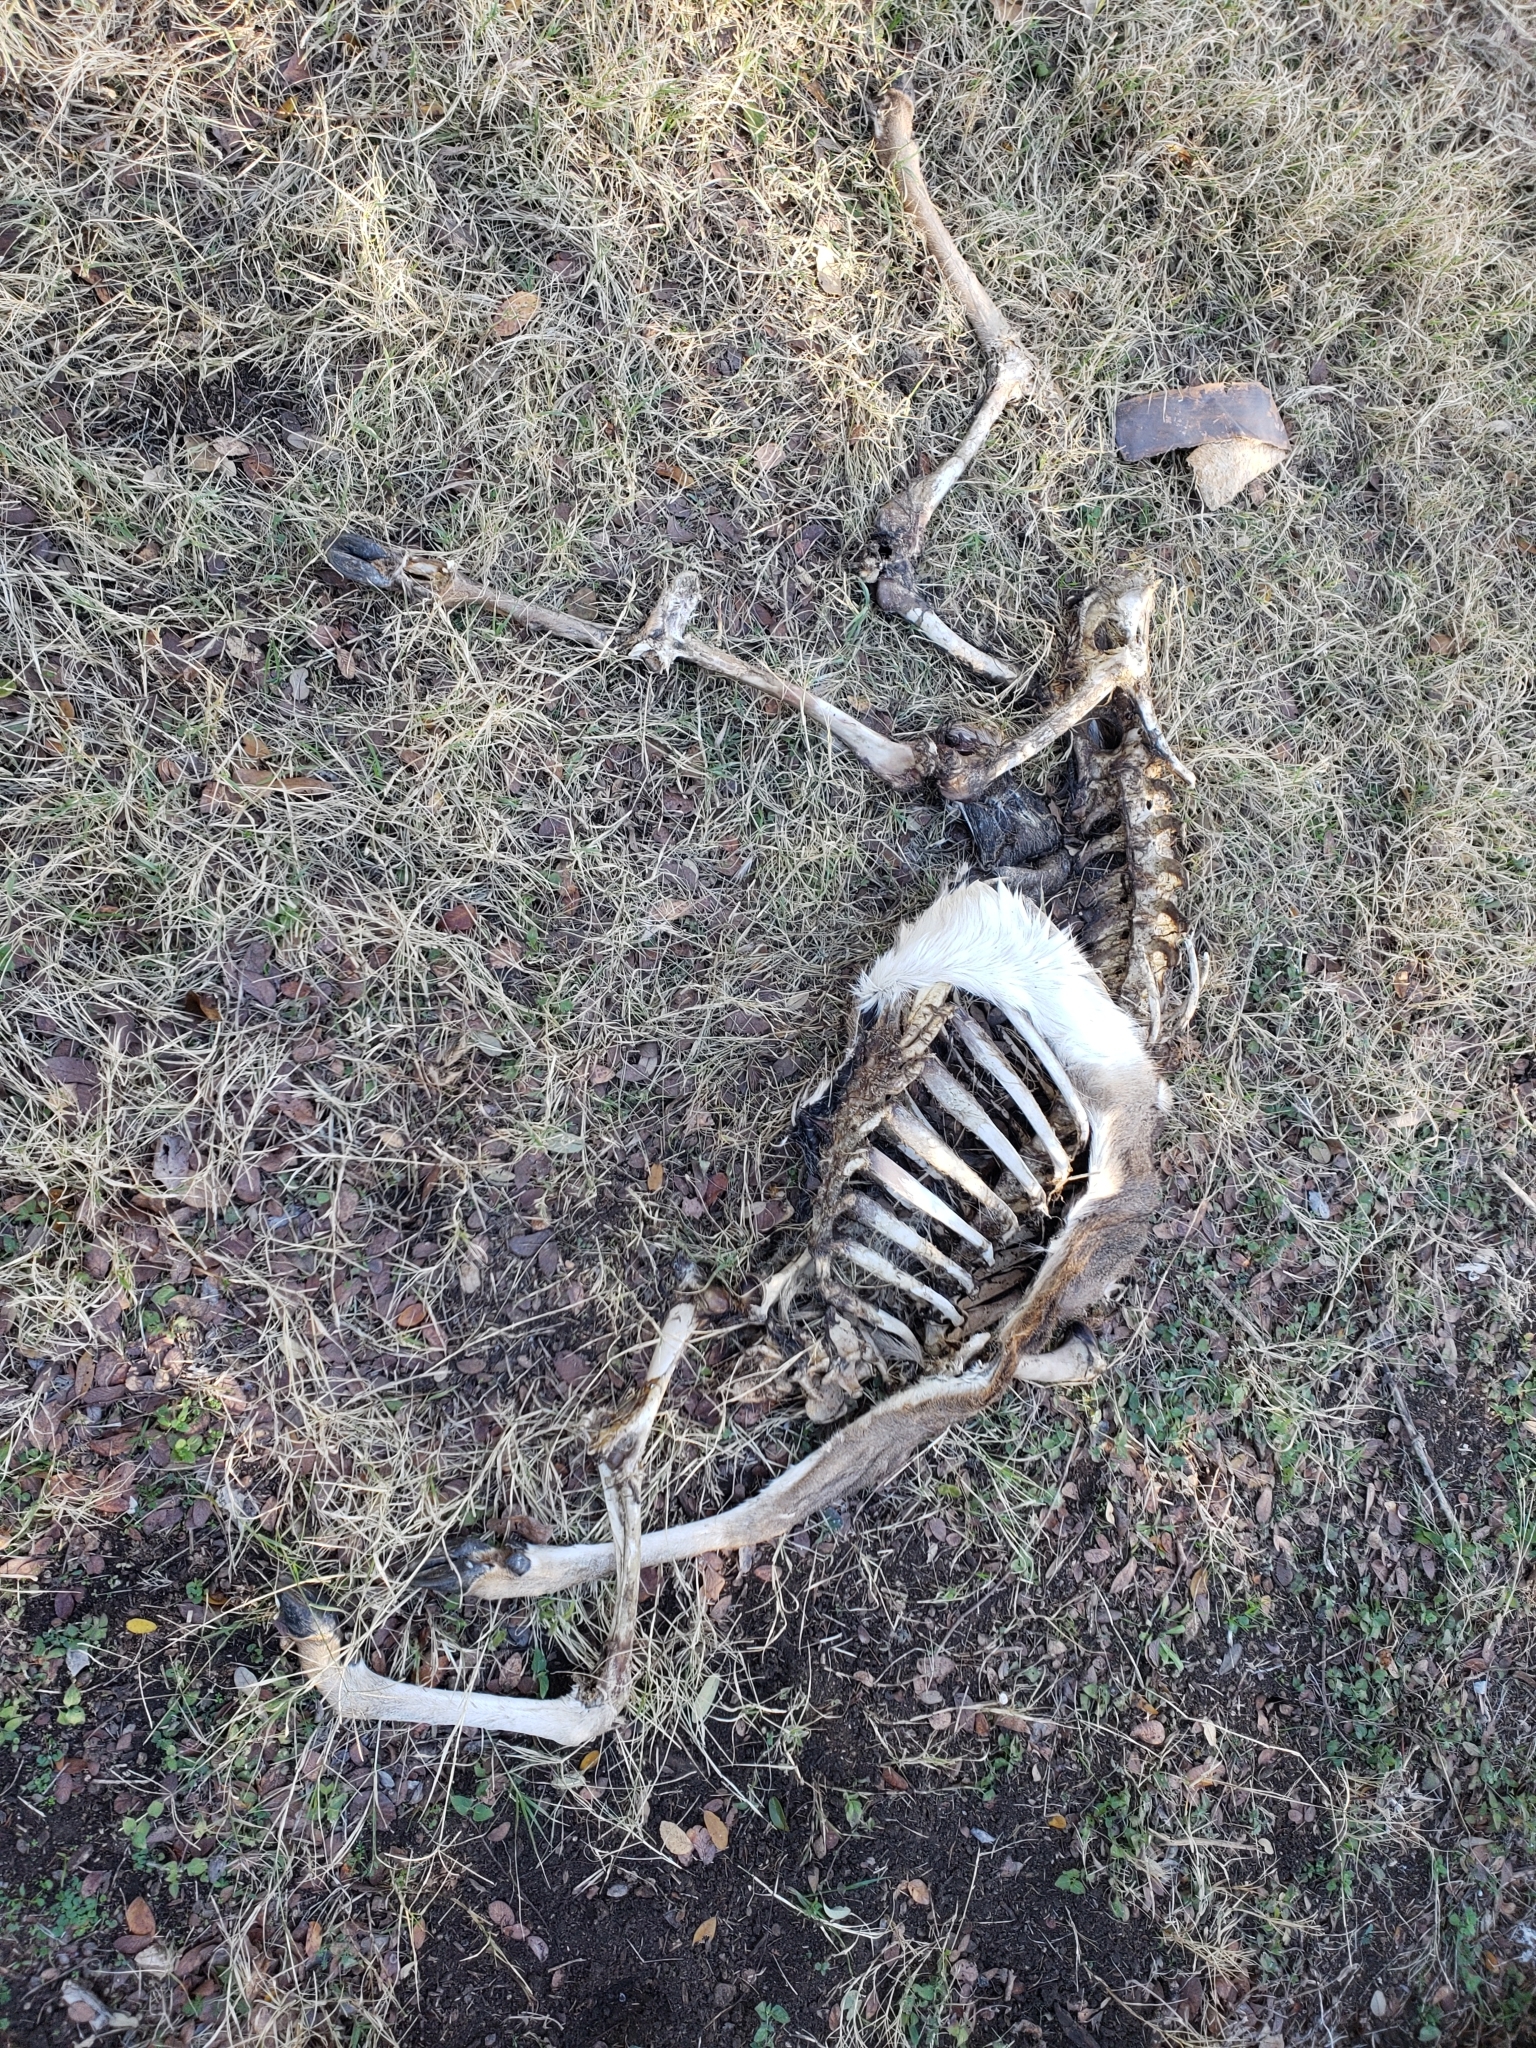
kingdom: Animalia
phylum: Chordata
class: Mammalia
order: Artiodactyla
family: Cervidae
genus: Odocoileus
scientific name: Odocoileus virginianus
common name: White-tailed deer
